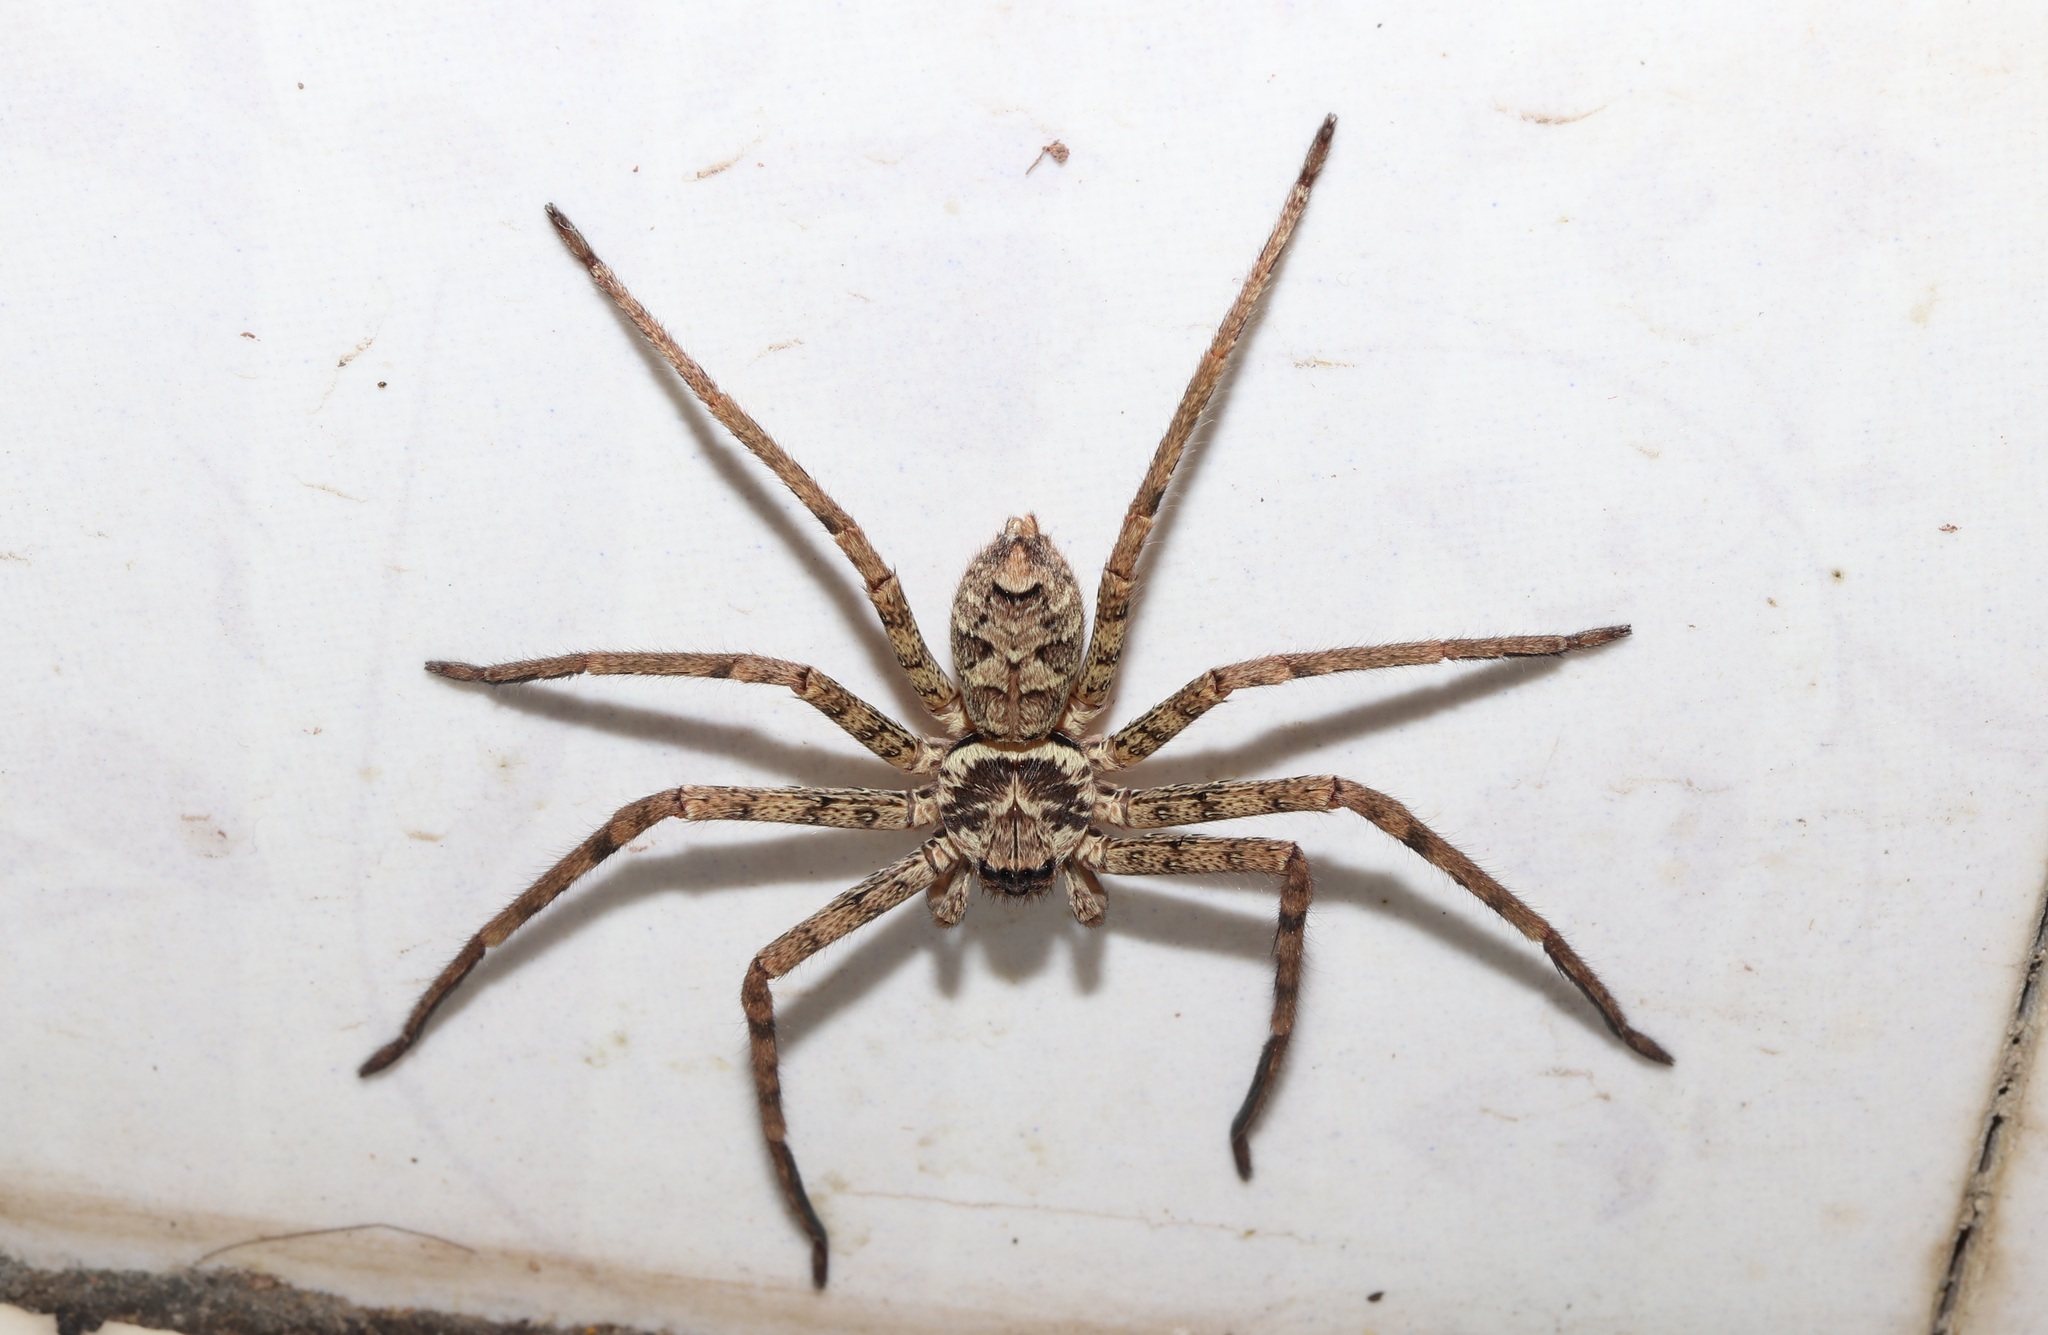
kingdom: Animalia
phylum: Arthropoda
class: Arachnida
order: Araneae
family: Sparassidae
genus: Heteropoda
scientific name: Heteropoda venatoria
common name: Huntsman spider
